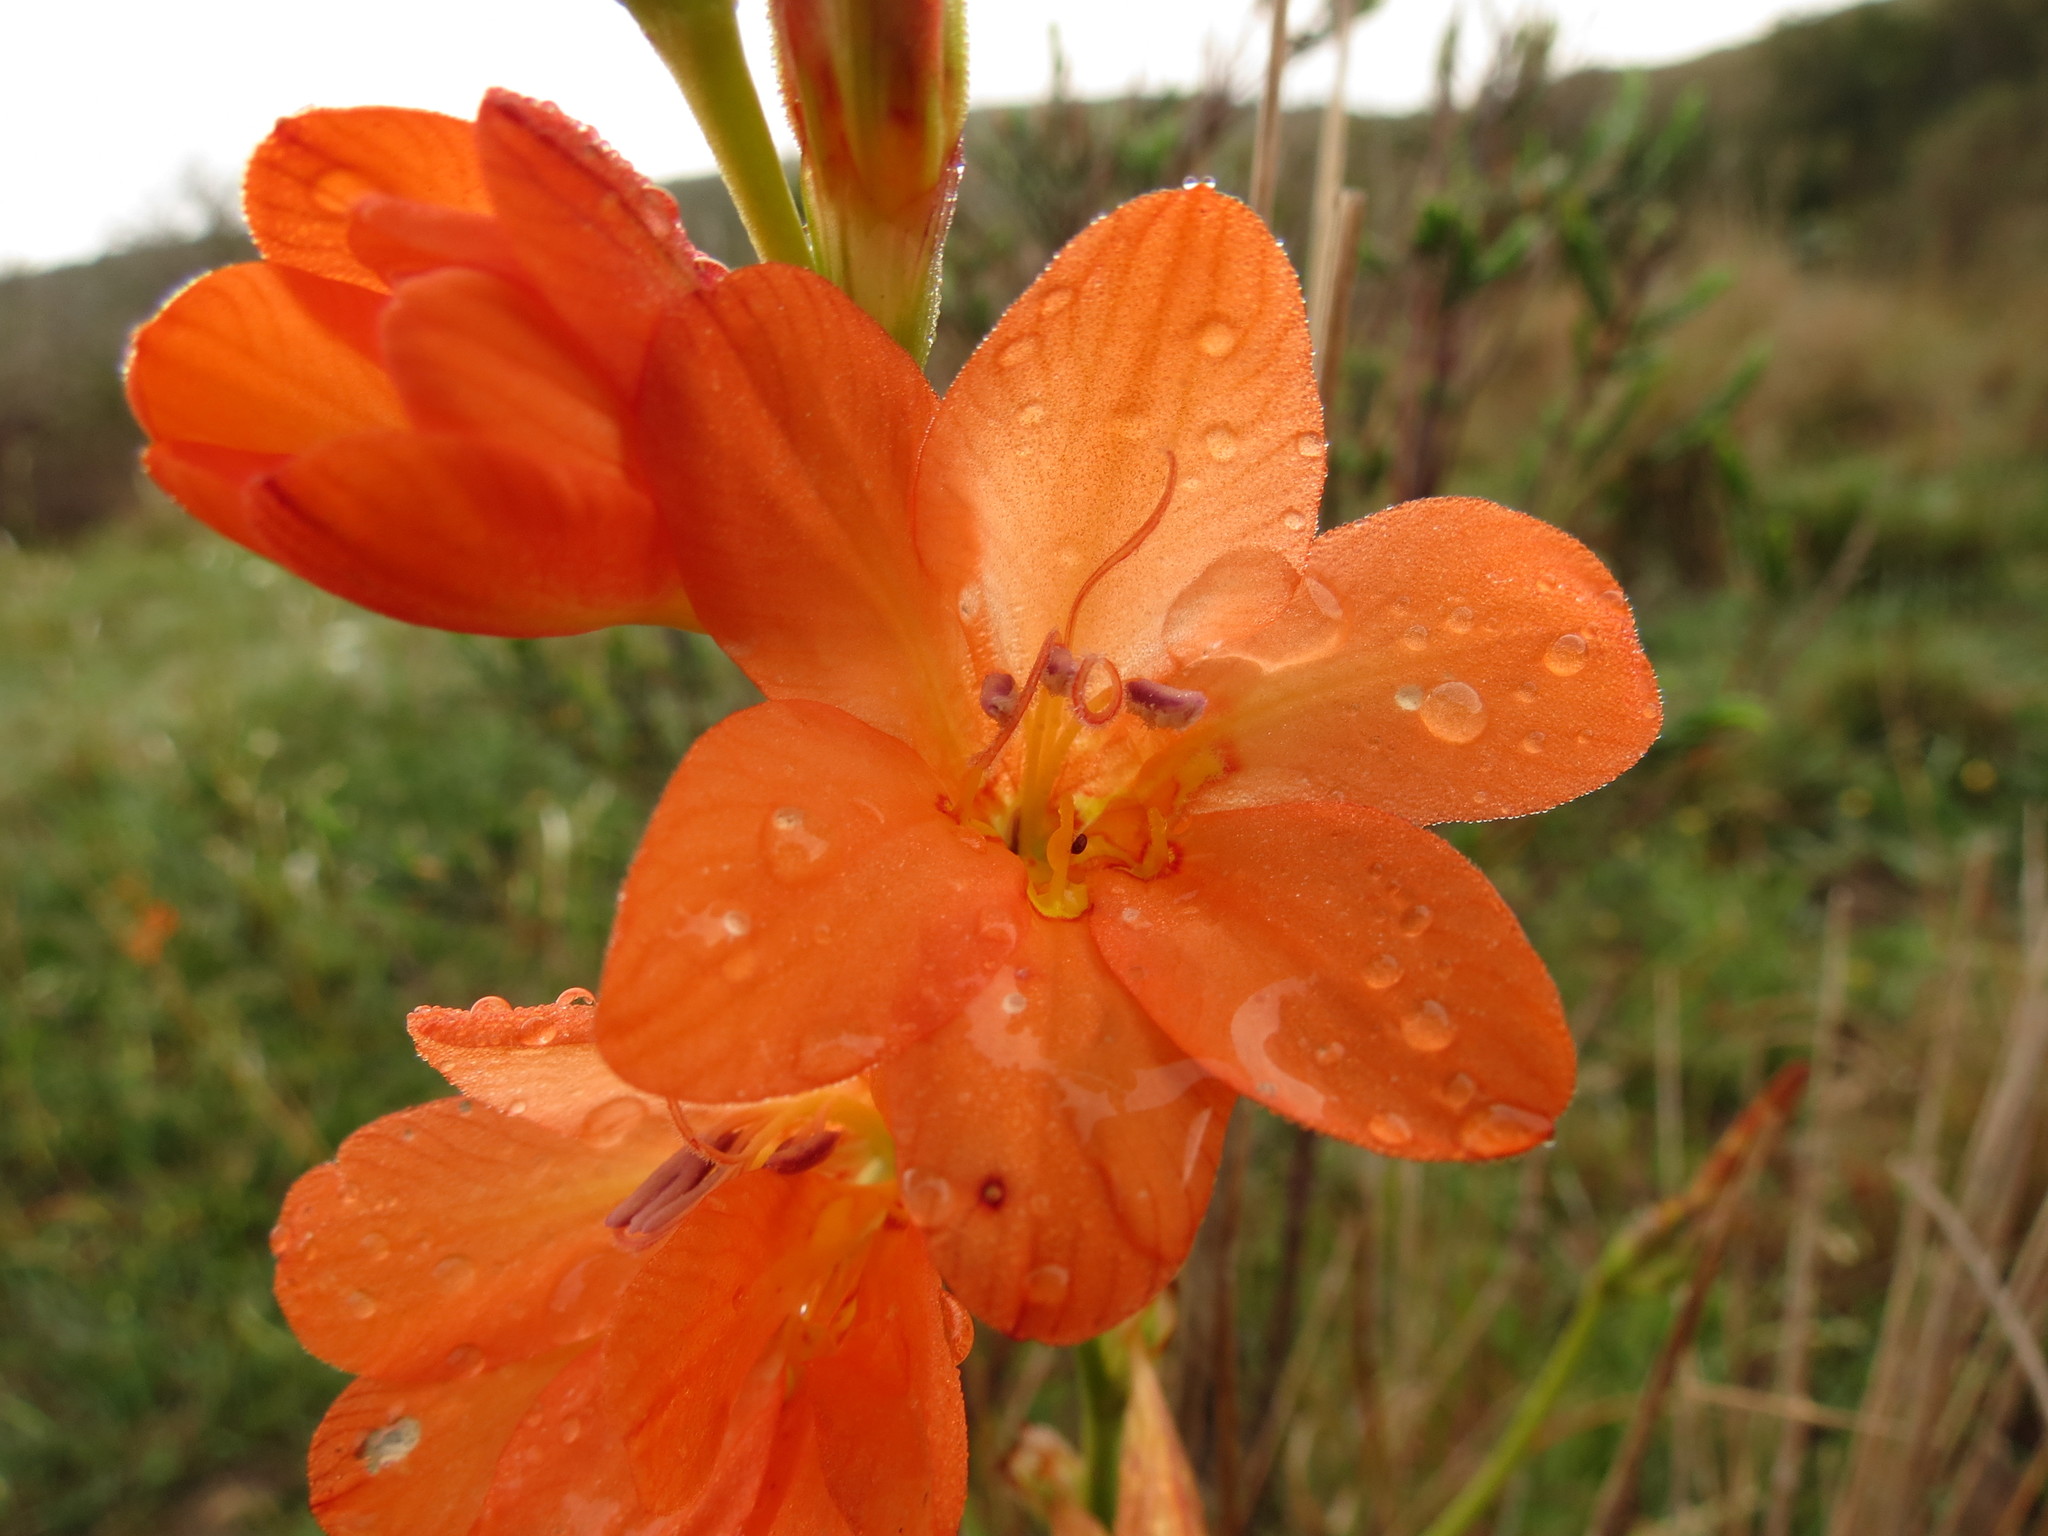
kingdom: Plantae
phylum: Tracheophyta
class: Liliopsida
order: Asparagales
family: Iridaceae
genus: Tritonia
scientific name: Tritonia securigera
